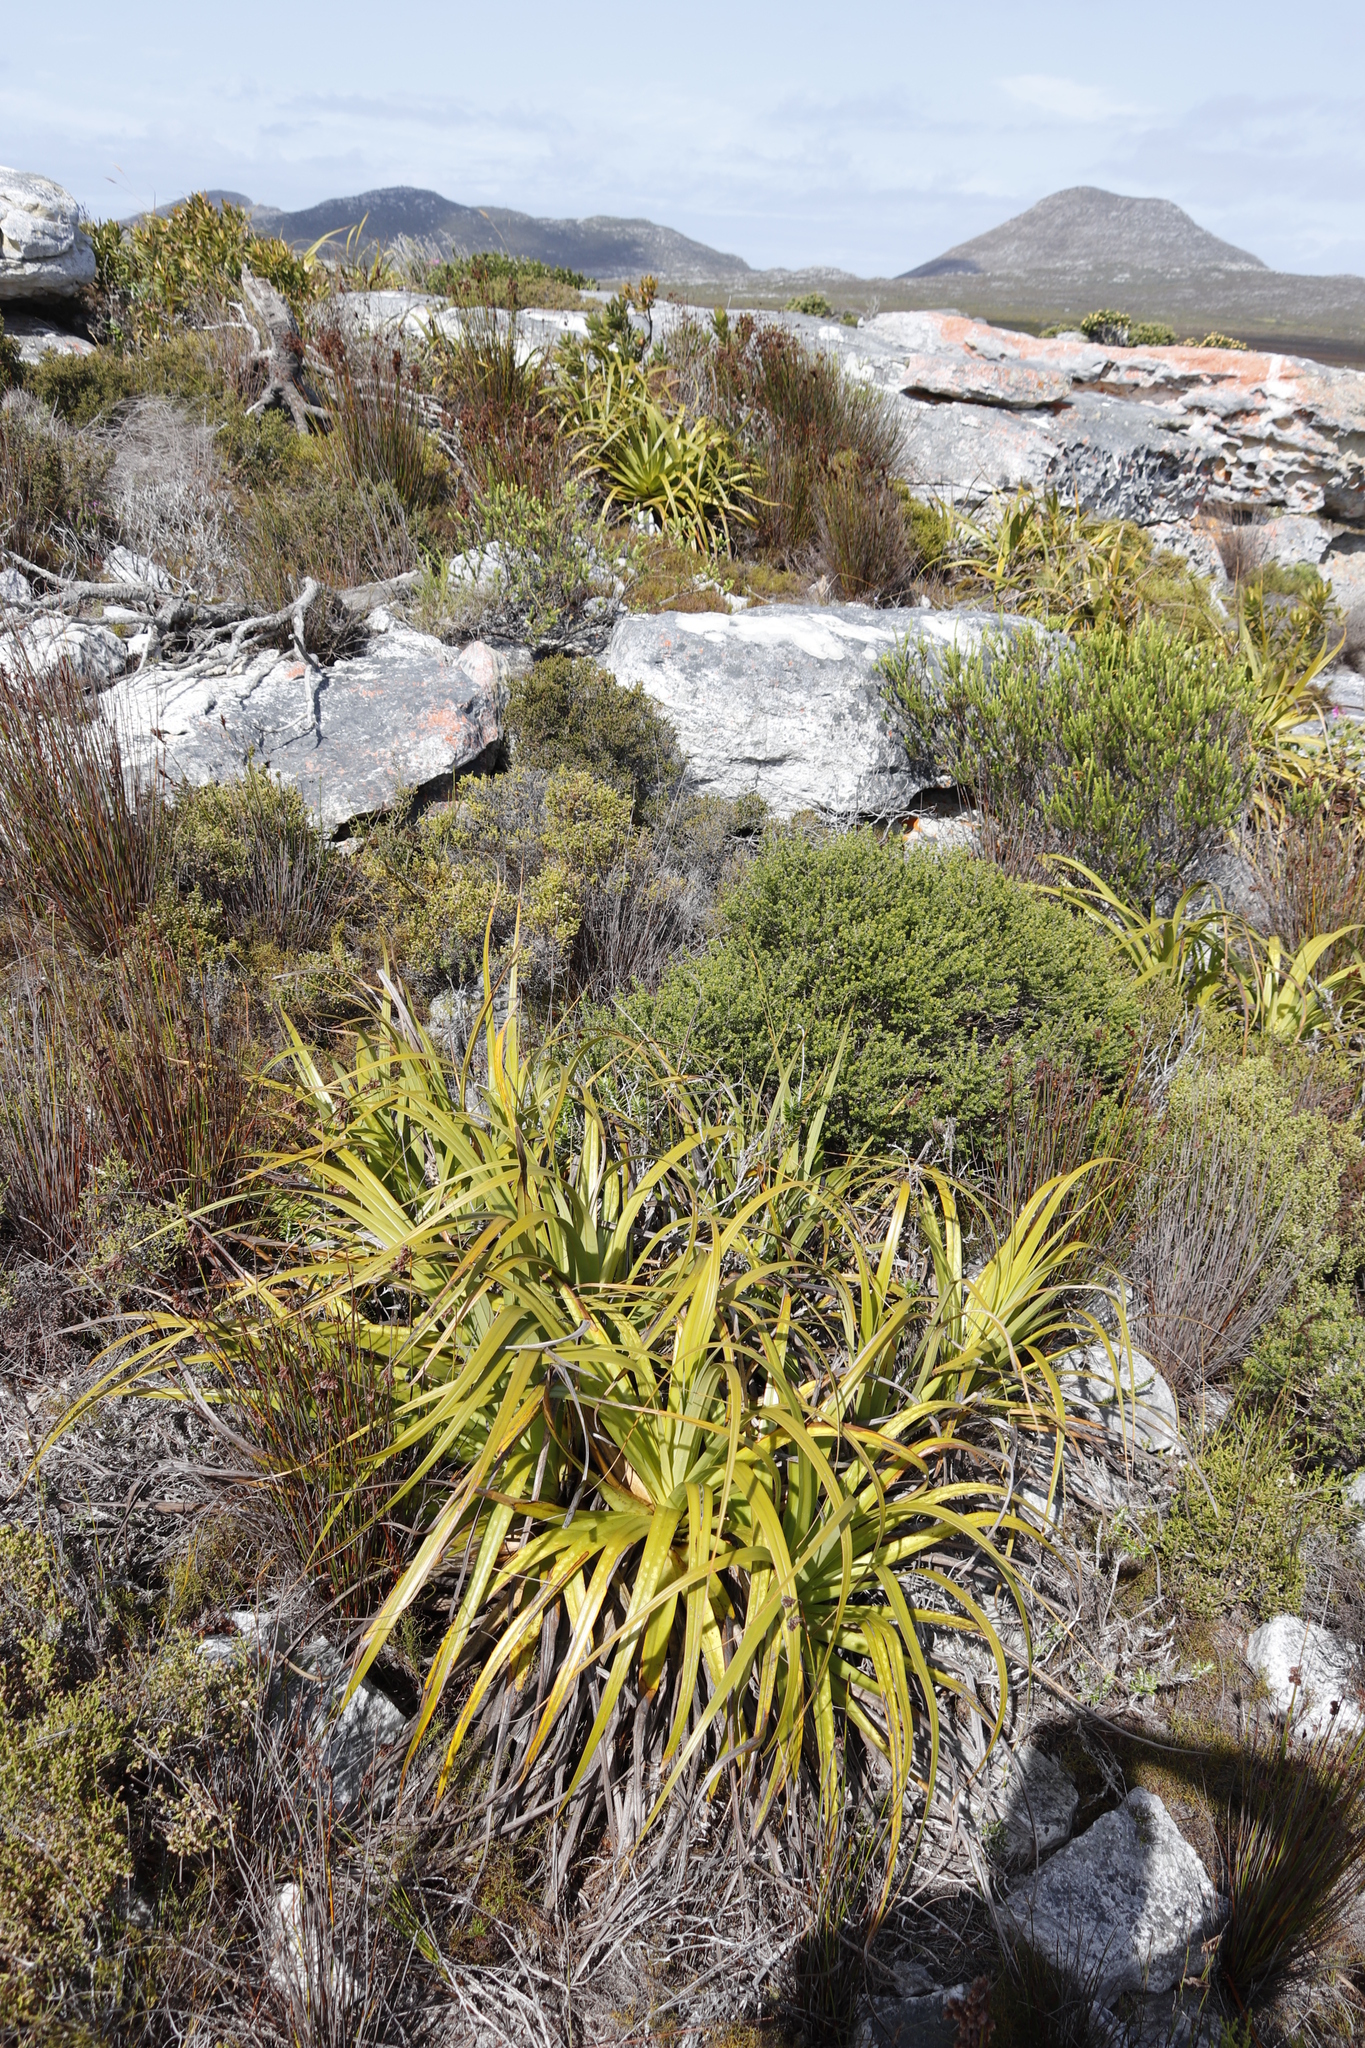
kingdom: Plantae
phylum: Tracheophyta
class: Liliopsida
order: Poales
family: Cyperaceae
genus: Tetraria
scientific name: Tetraria thermalis
